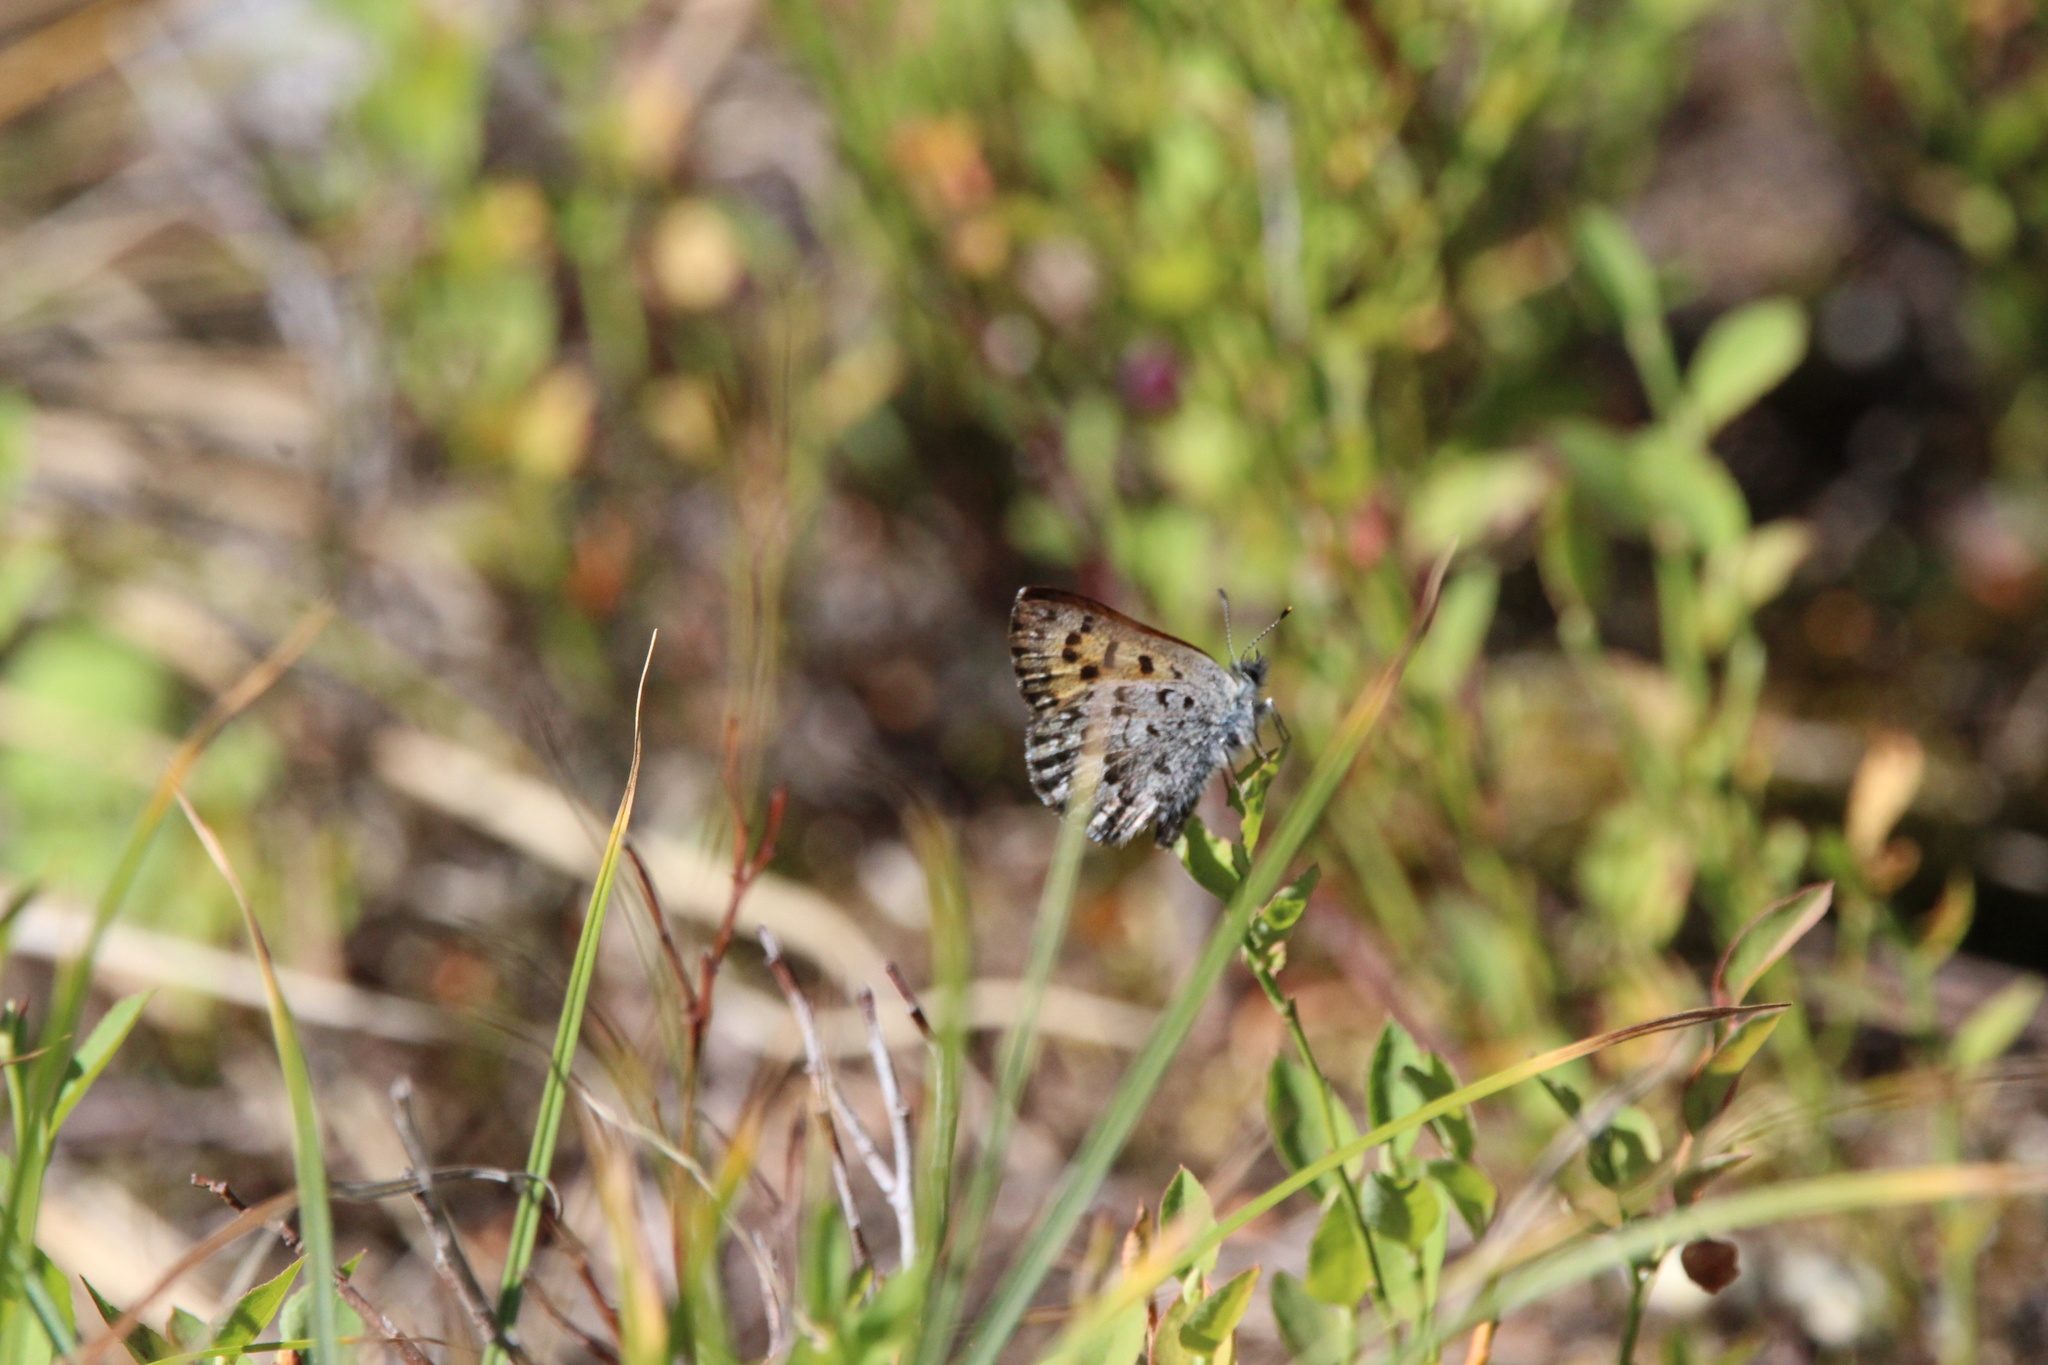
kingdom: Animalia
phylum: Arthropoda
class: Insecta
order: Lepidoptera
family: Lycaenidae
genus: Tharsalea
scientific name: Tharsalea mariposa
